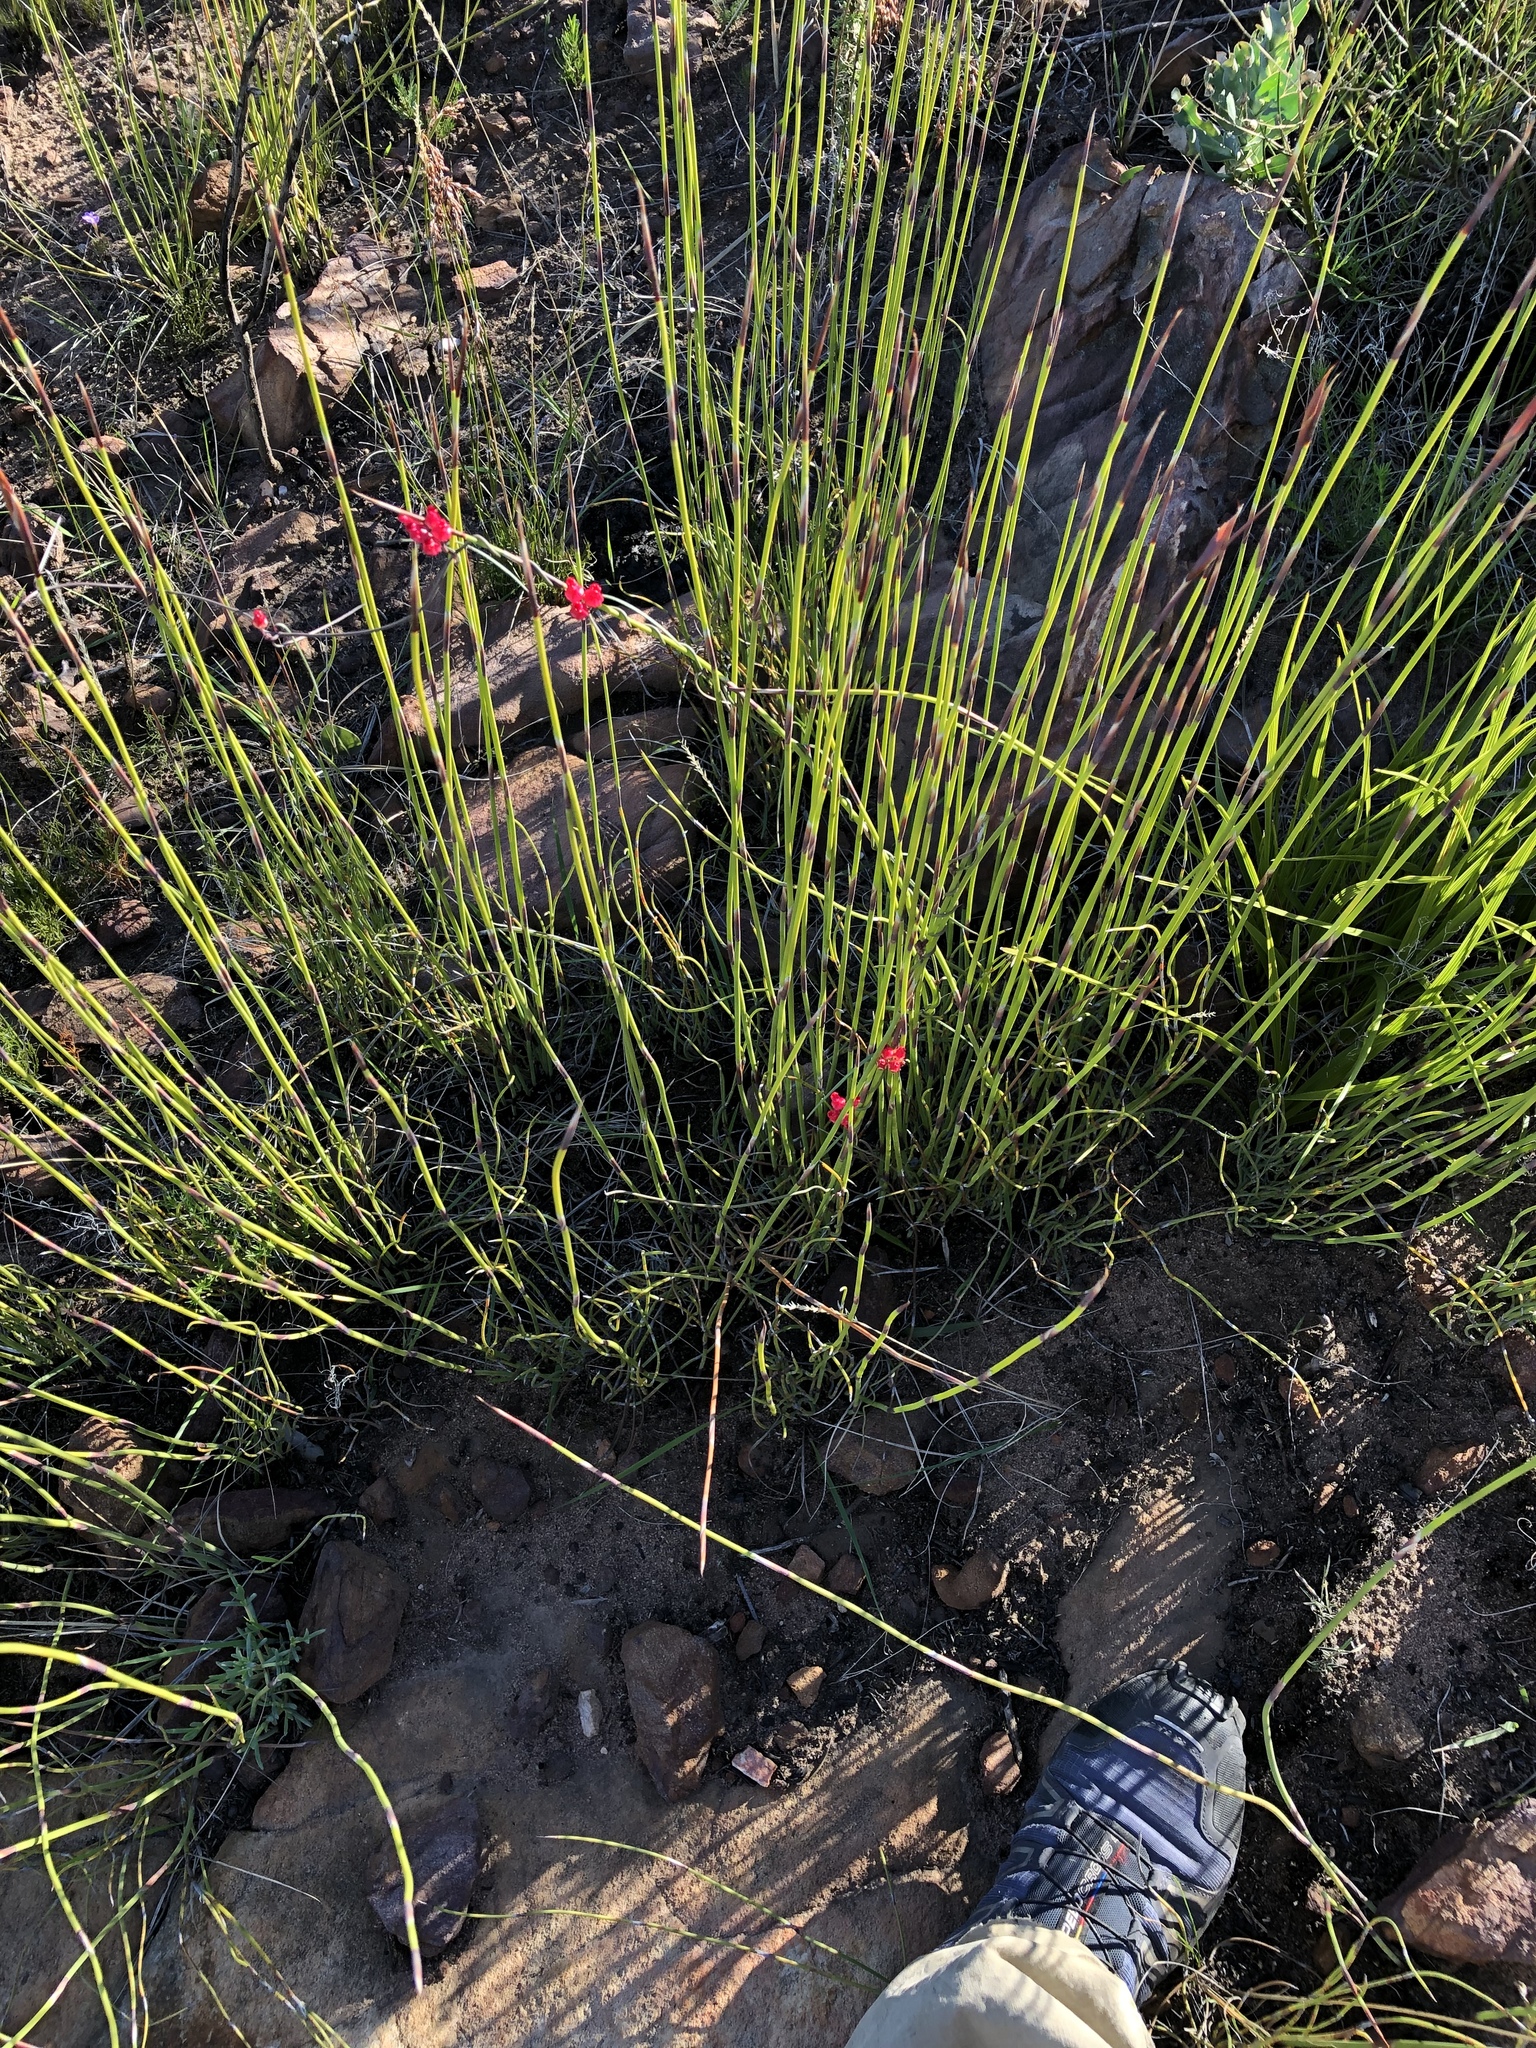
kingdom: Plantae
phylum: Tracheophyta
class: Magnoliopsida
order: Gentianales
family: Apocynaceae
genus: Microloma
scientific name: Microloma tenuifolium
